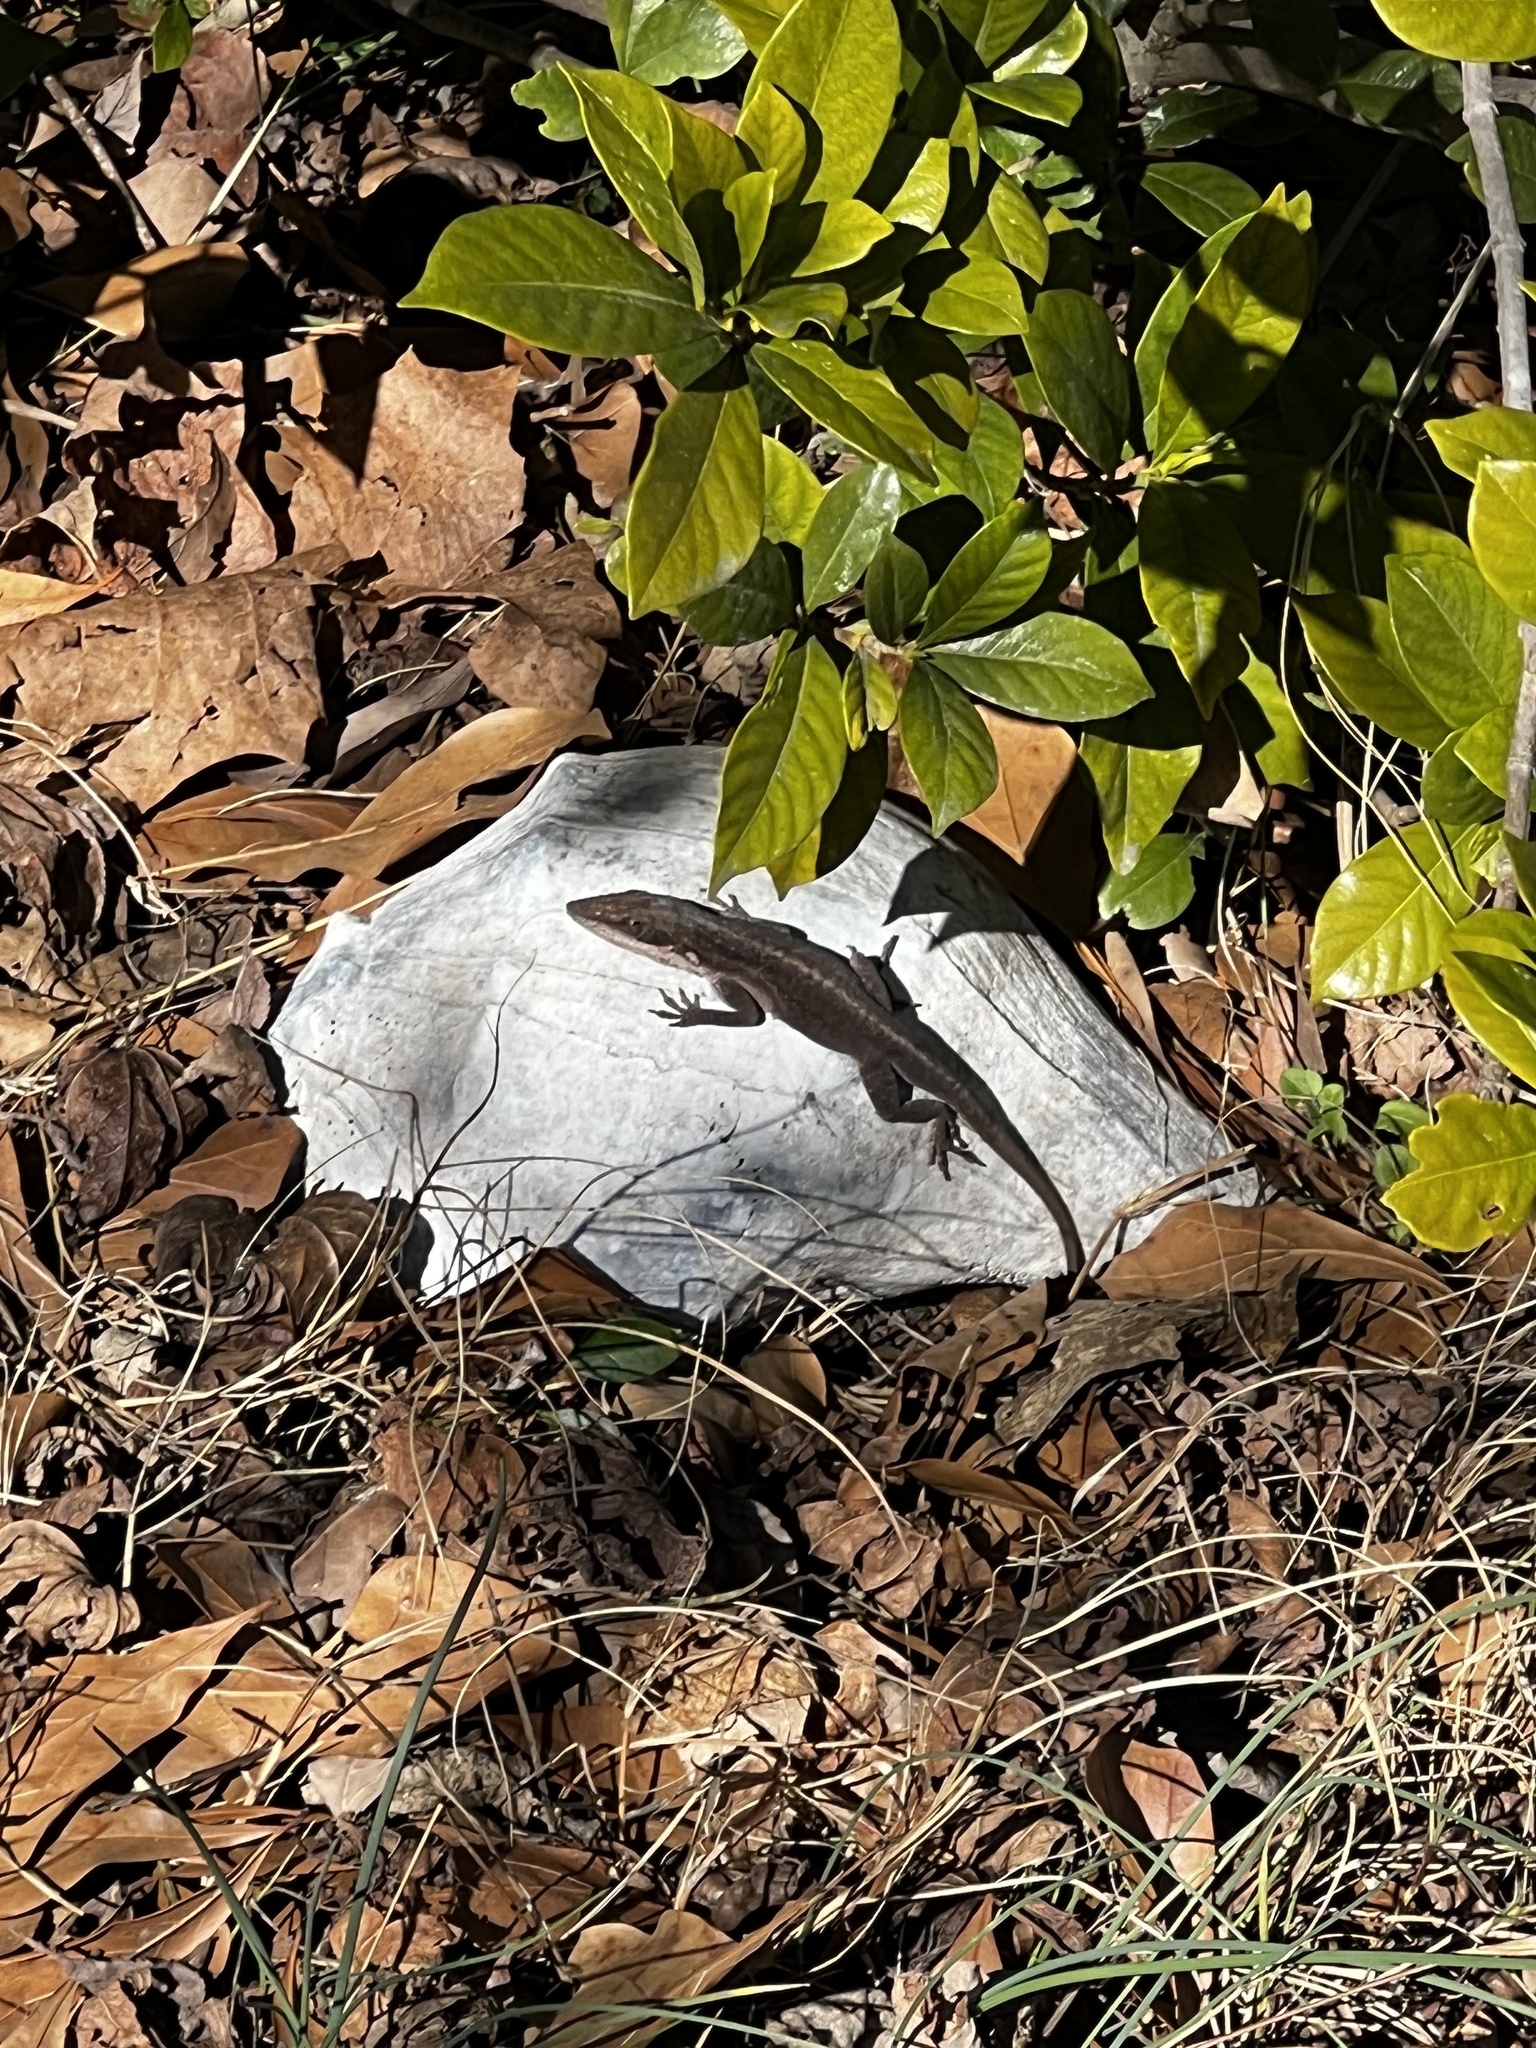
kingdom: Animalia
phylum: Chordata
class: Squamata
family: Dactyloidae
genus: Anolis
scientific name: Anolis carolinensis
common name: Green anole
